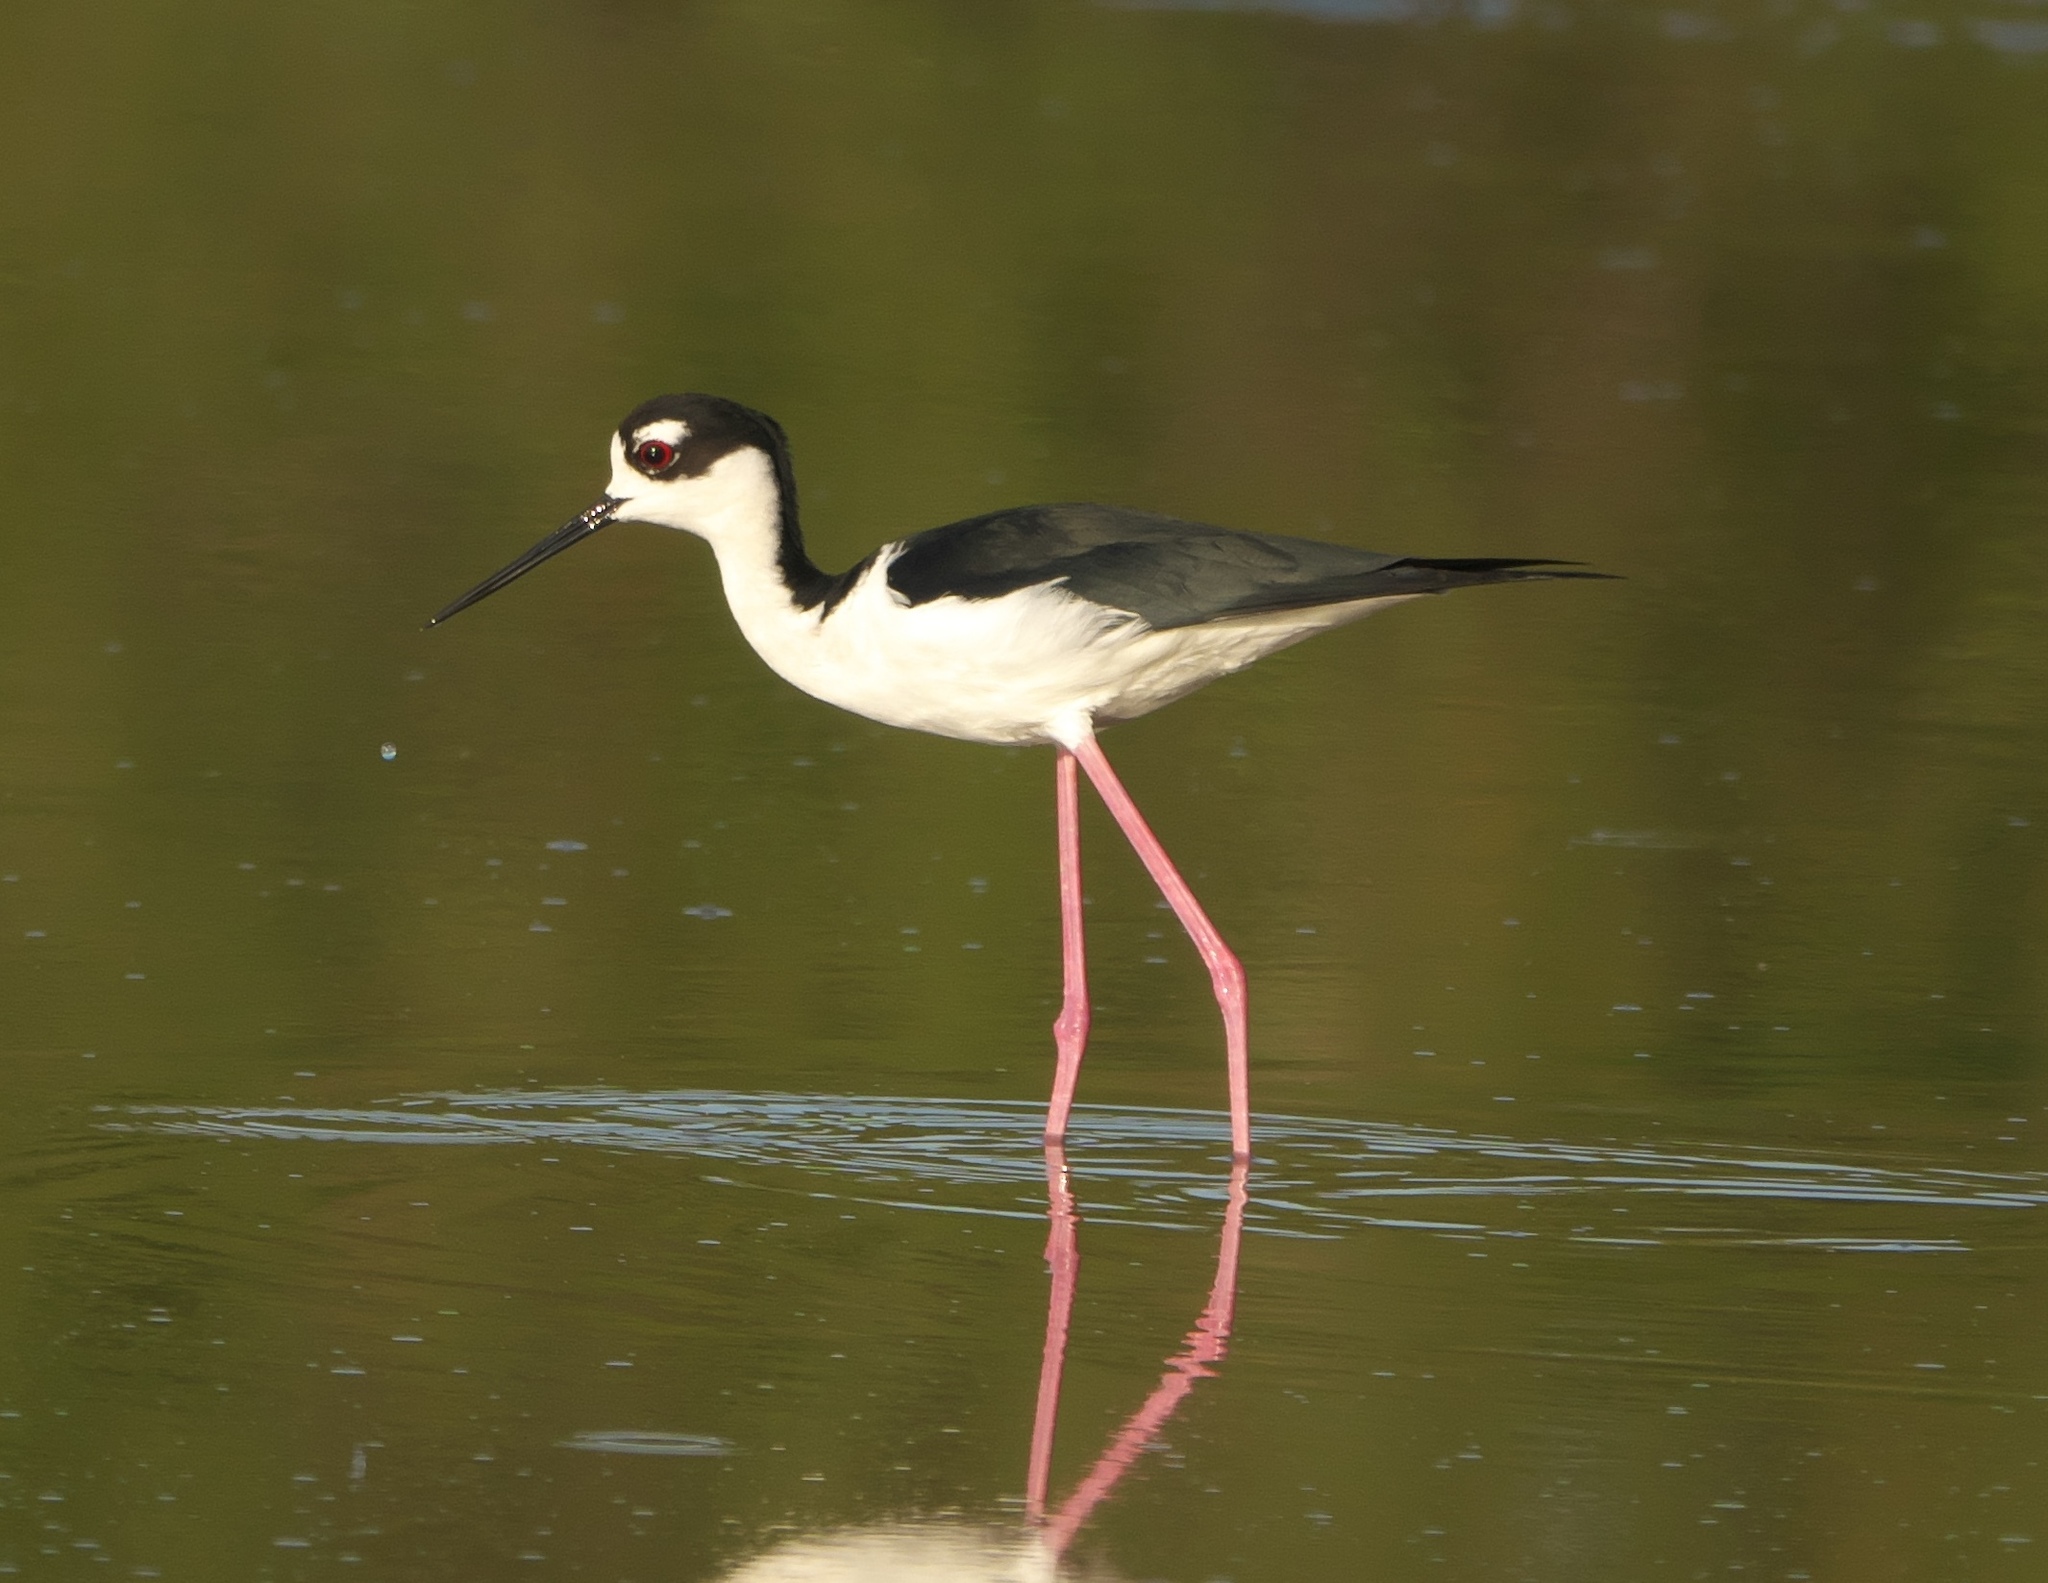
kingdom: Animalia
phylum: Chordata
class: Aves
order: Charadriiformes
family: Recurvirostridae
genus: Himantopus
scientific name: Himantopus mexicanus
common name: Black-necked stilt
